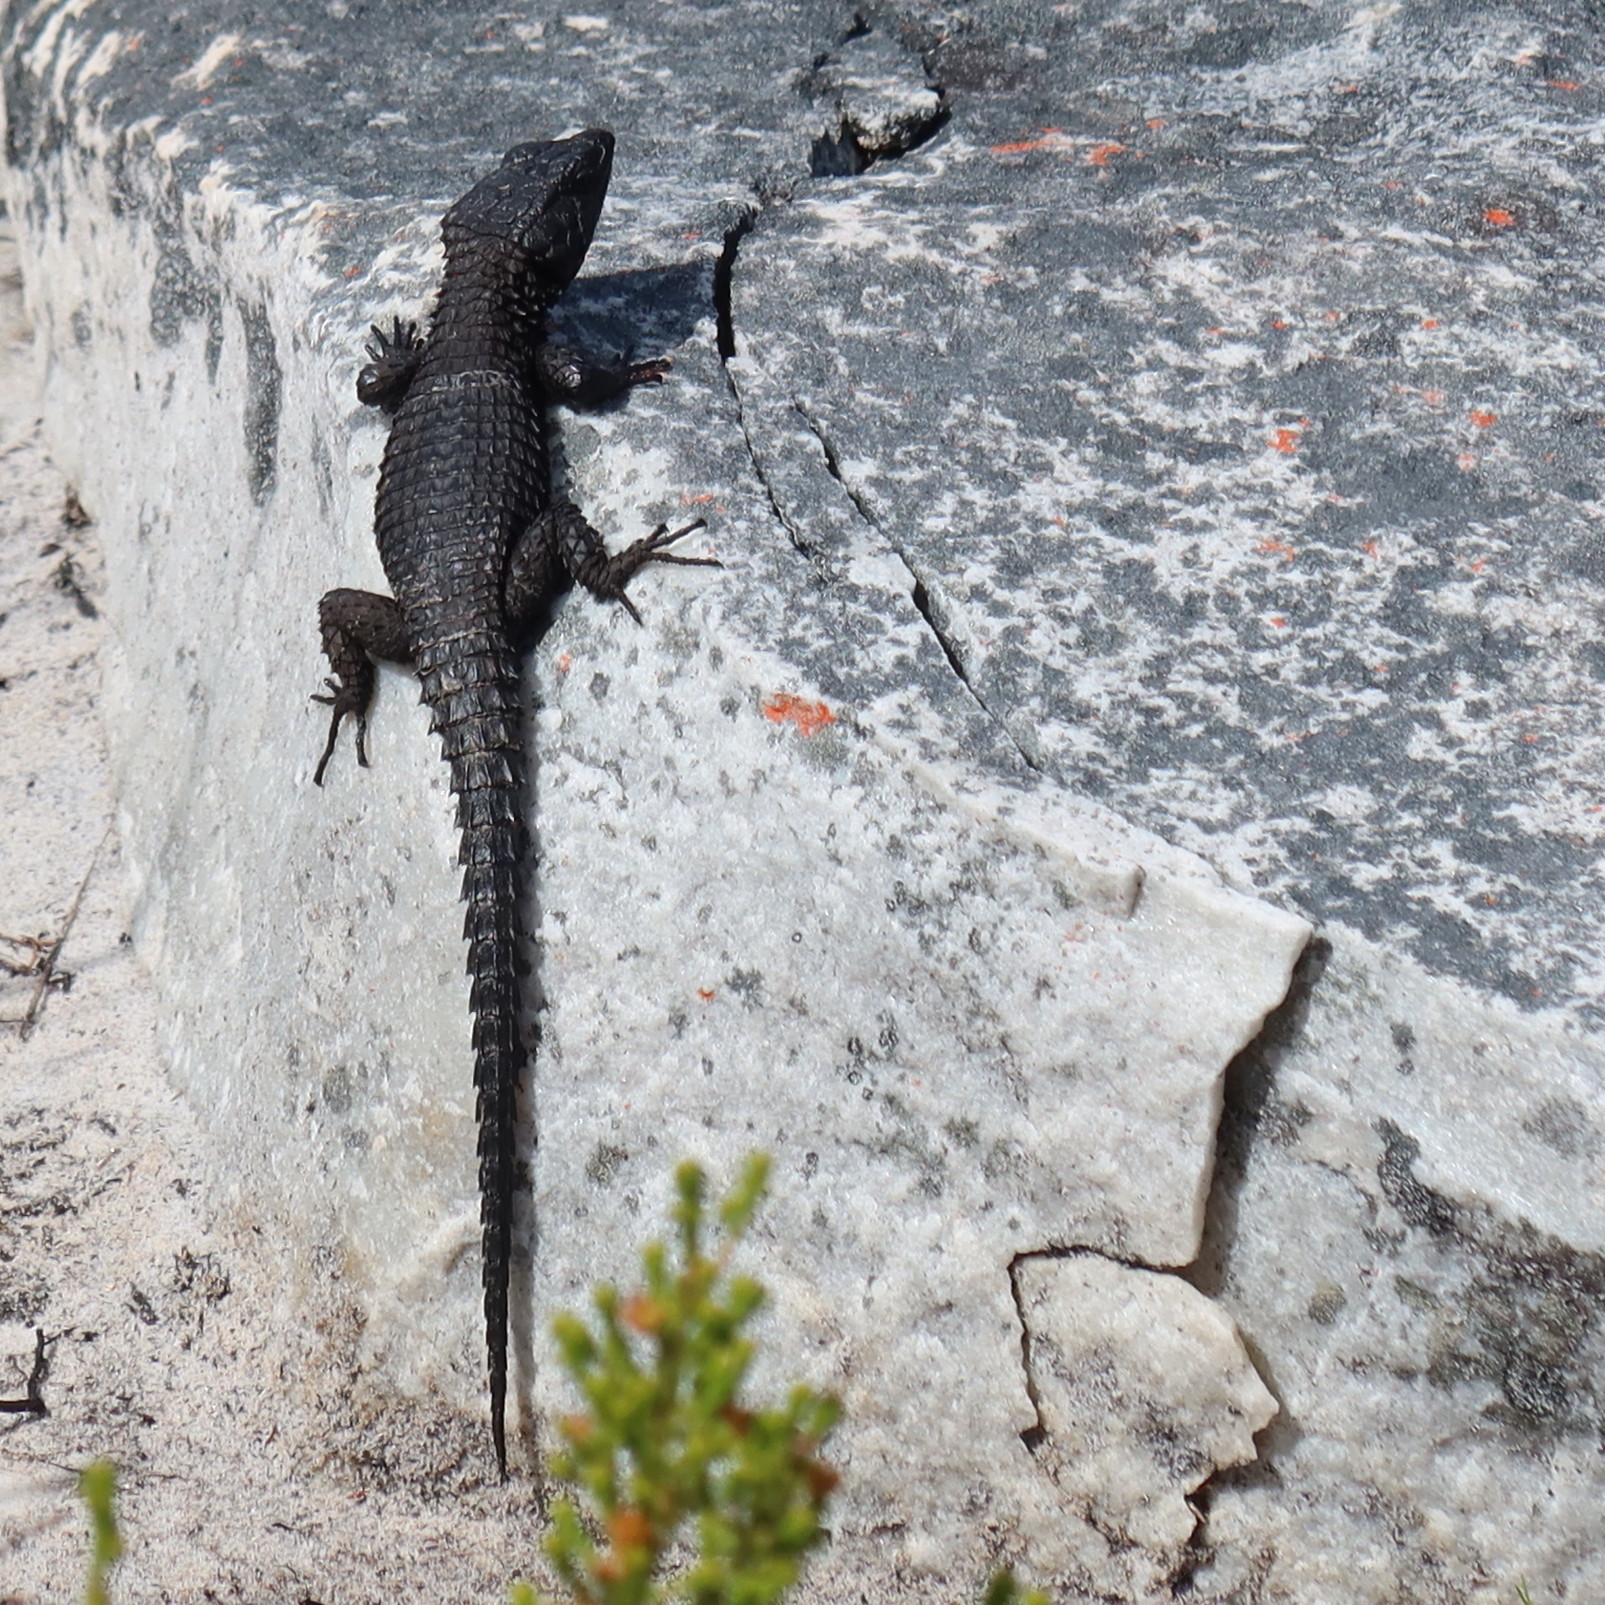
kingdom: Animalia
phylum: Chordata
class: Squamata
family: Cordylidae
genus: Cordylus
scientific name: Cordylus niger
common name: Black girdled lizard
